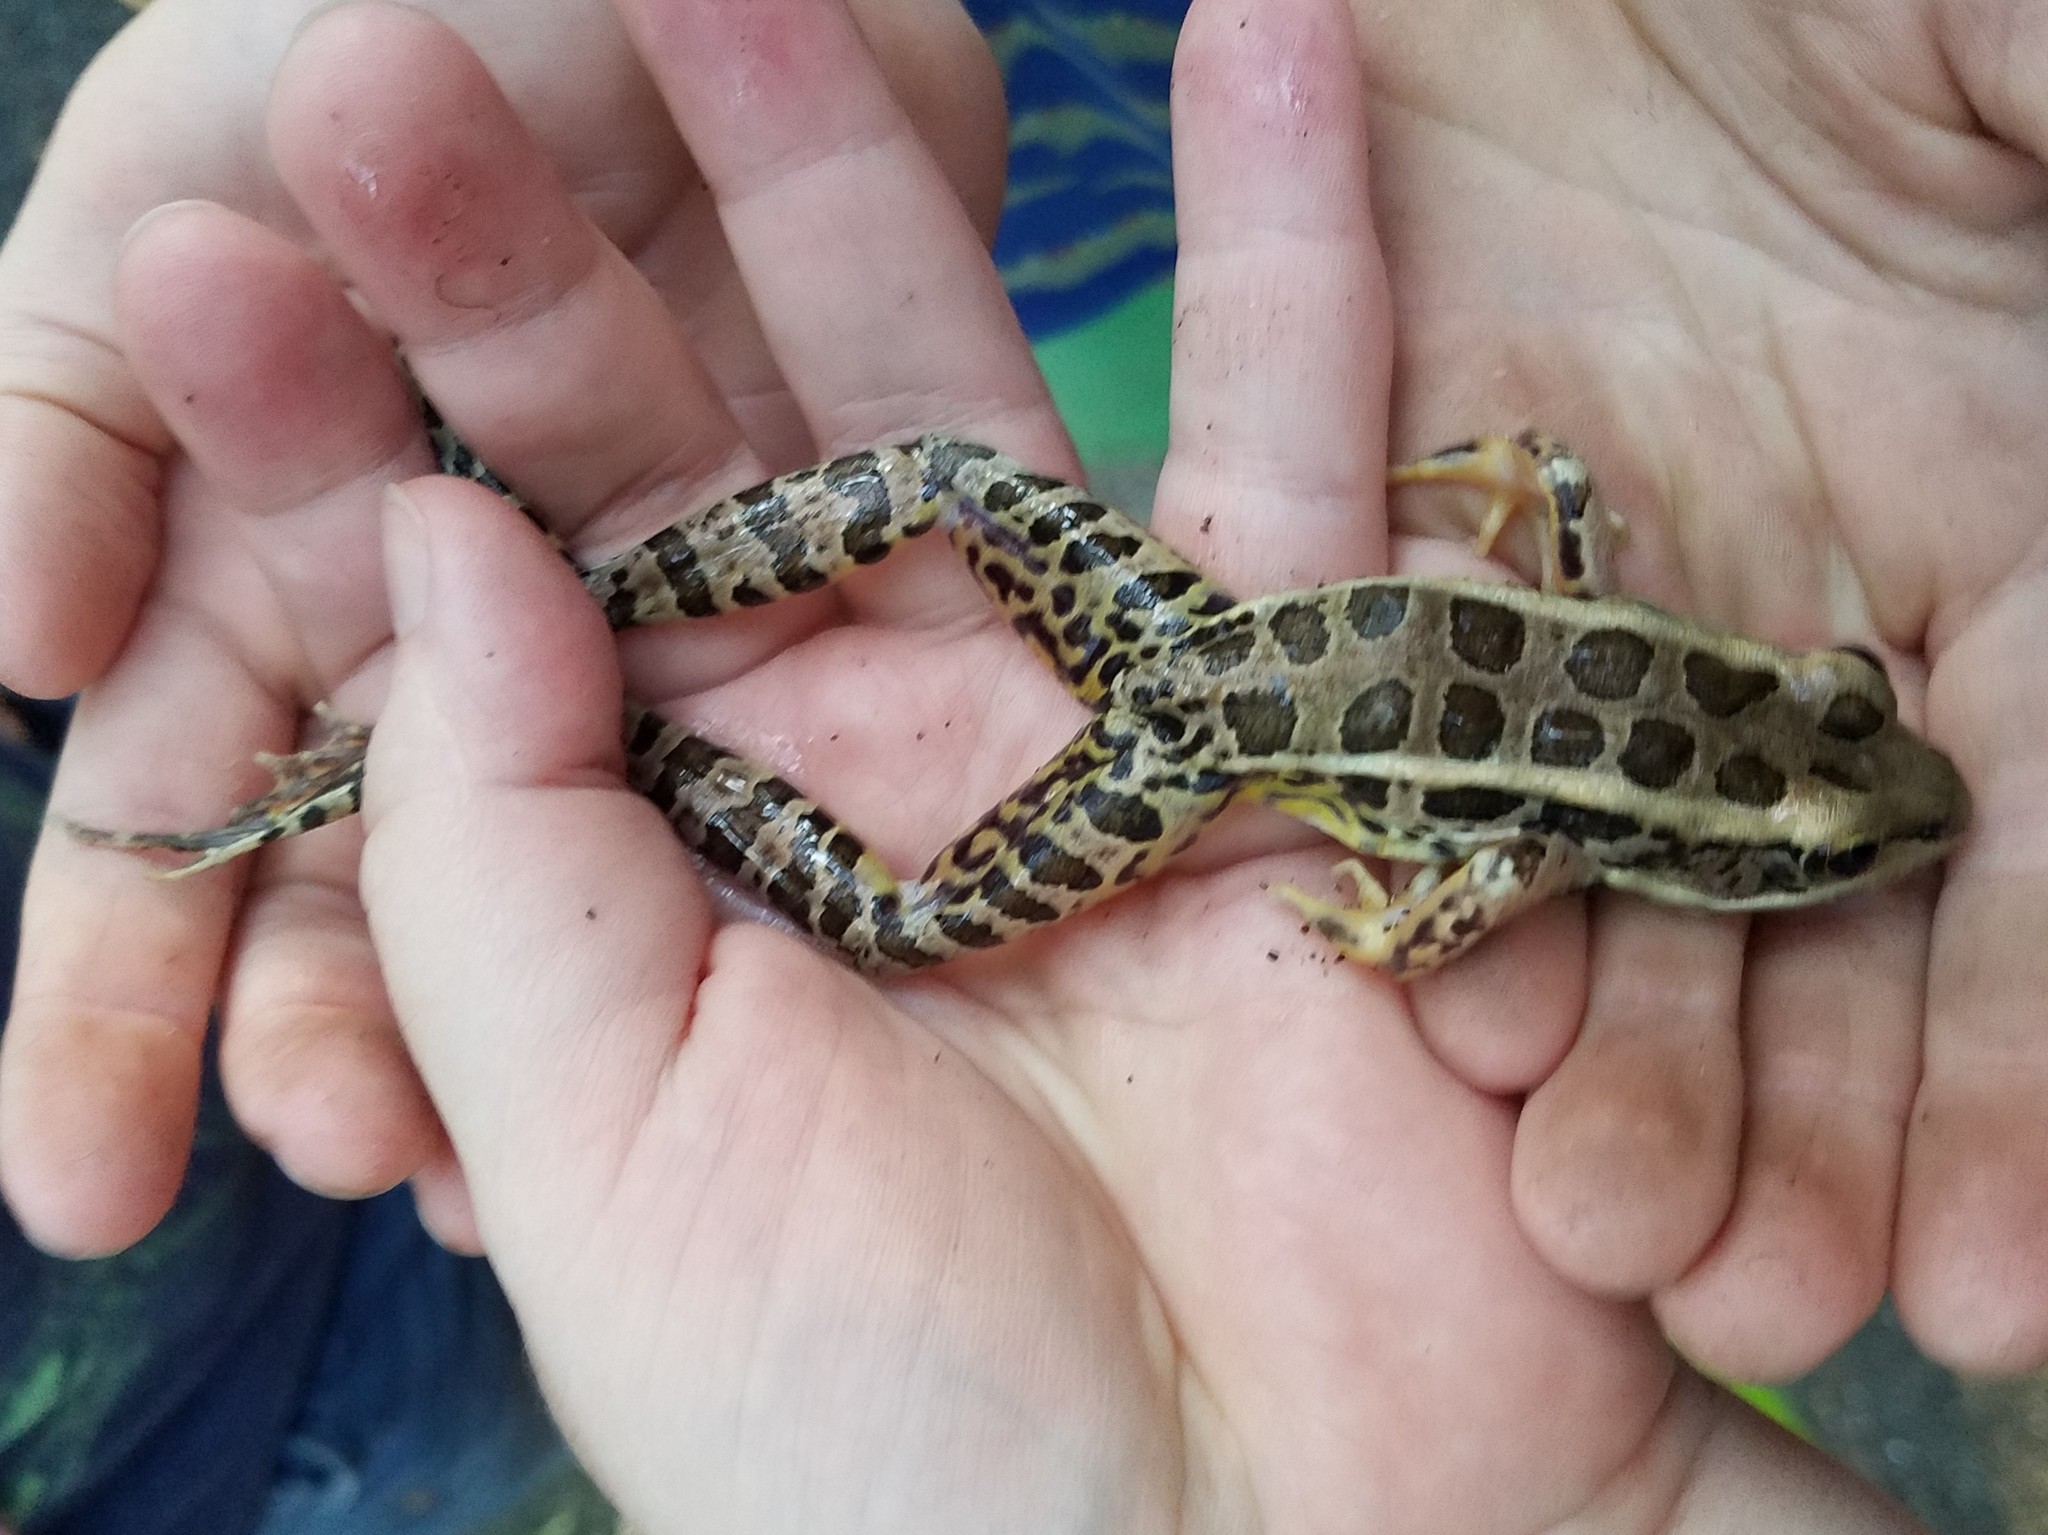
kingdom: Animalia
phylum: Chordata
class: Amphibia
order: Anura
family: Ranidae
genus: Lithobates
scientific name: Lithobates palustris
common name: Pickerel frog
